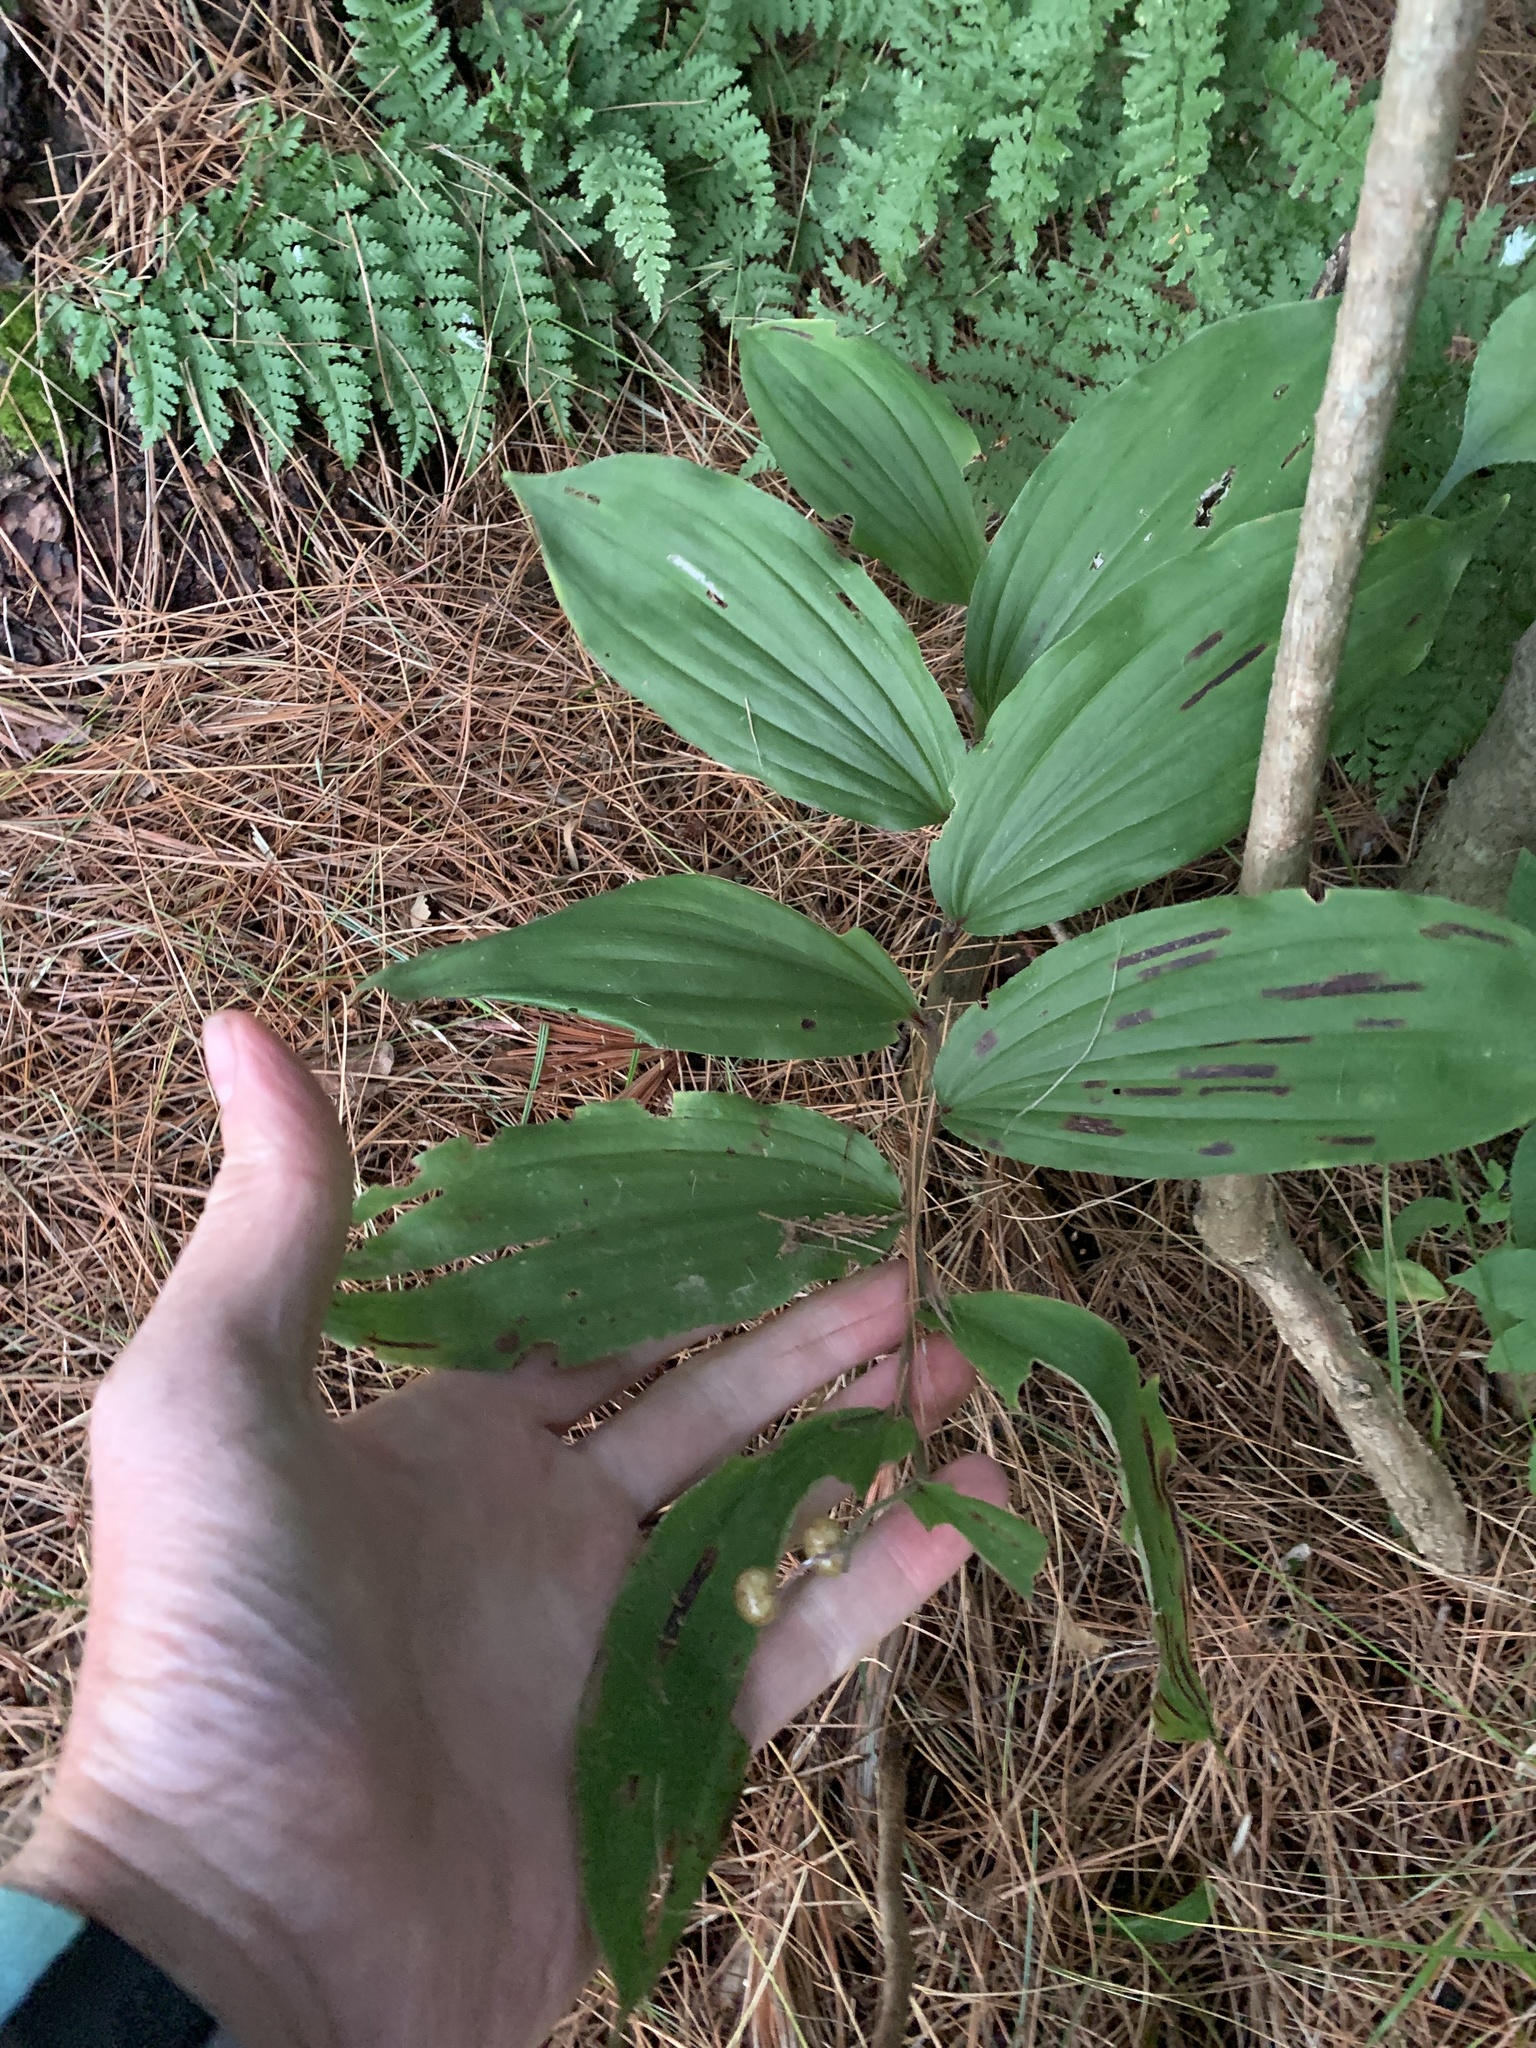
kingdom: Plantae
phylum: Tracheophyta
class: Liliopsida
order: Asparagales
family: Asparagaceae
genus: Maianthemum
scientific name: Maianthemum racemosum
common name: False spikenard
